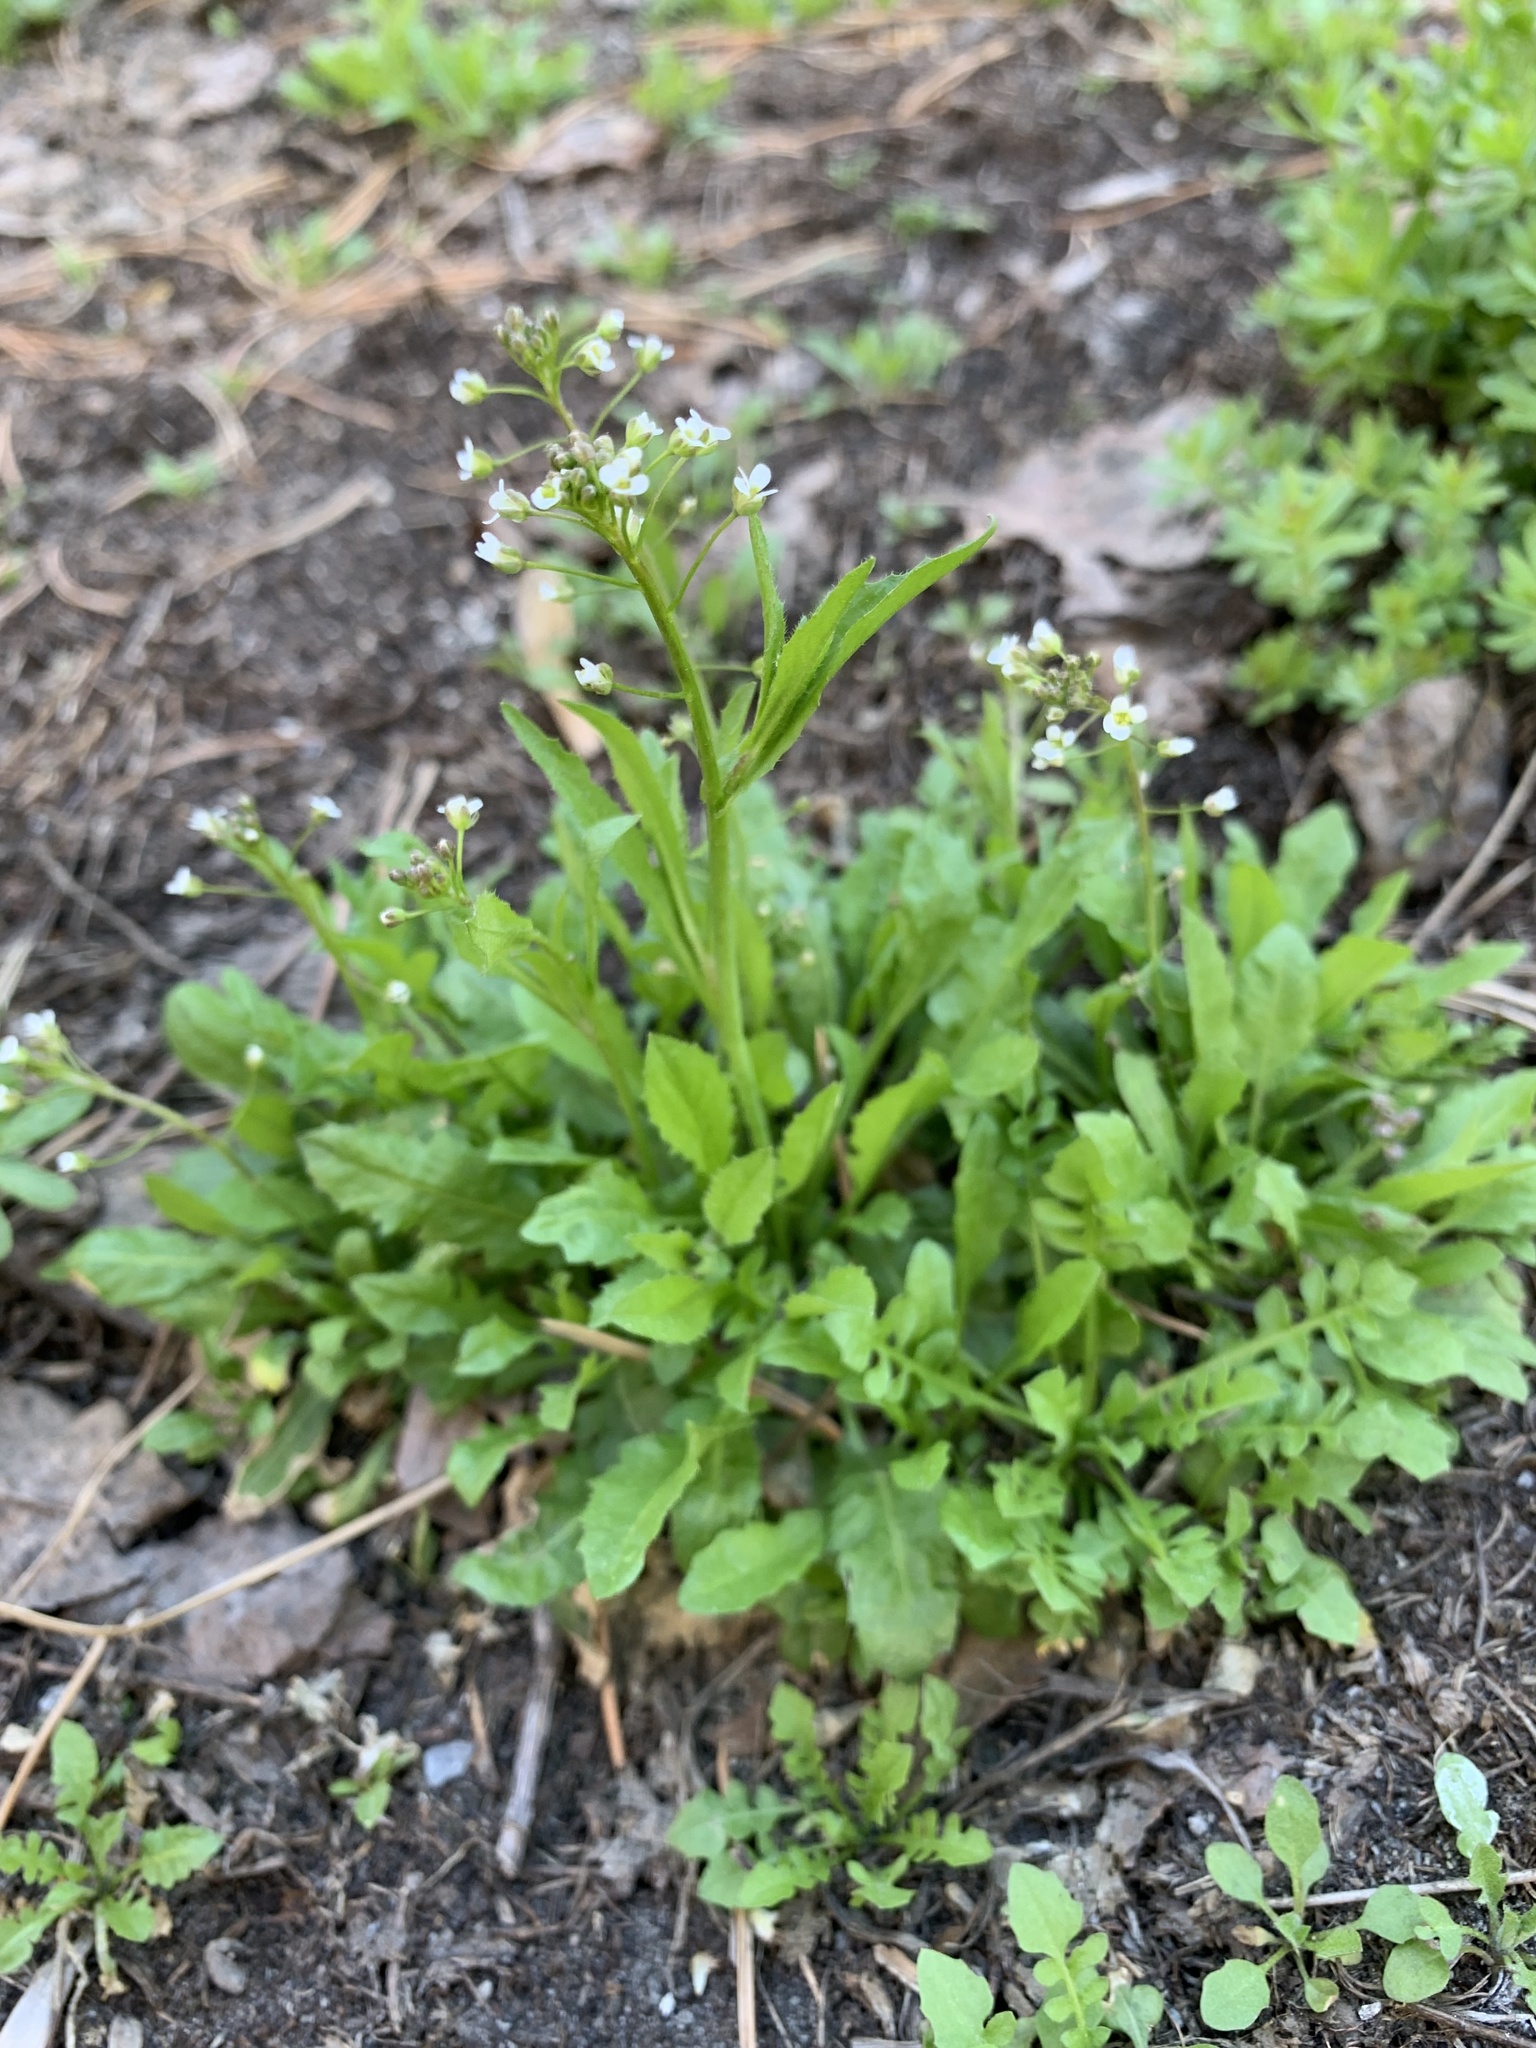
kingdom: Plantae
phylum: Tracheophyta
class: Magnoliopsida
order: Brassicales
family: Brassicaceae
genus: Capsella
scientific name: Capsella bursa-pastoris
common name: Shepherd's purse
